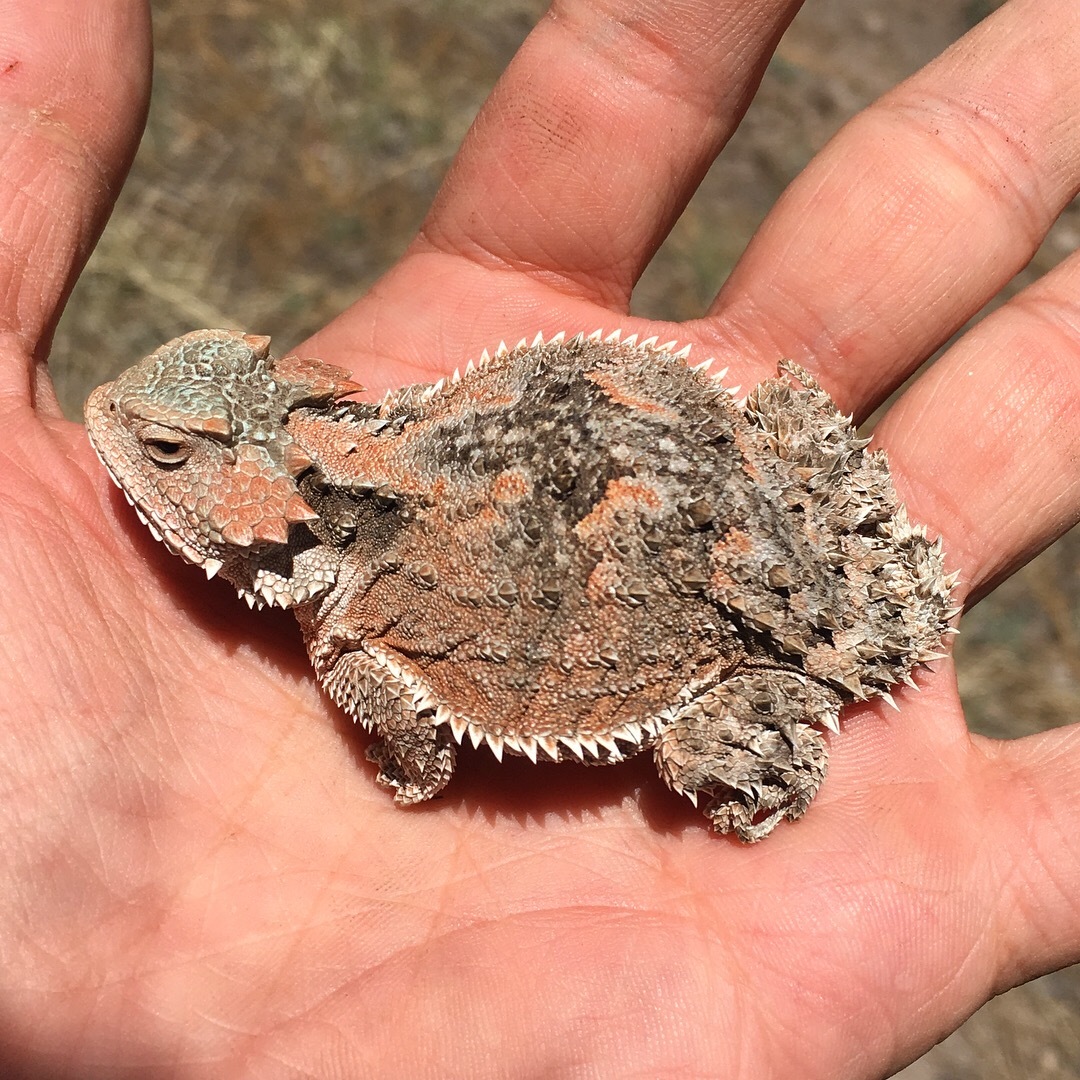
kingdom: Animalia
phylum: Chordata
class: Squamata
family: Phrynosomatidae
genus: Phrynosoma
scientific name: Phrynosoma hernandesi
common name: Greater short-horned lizard
